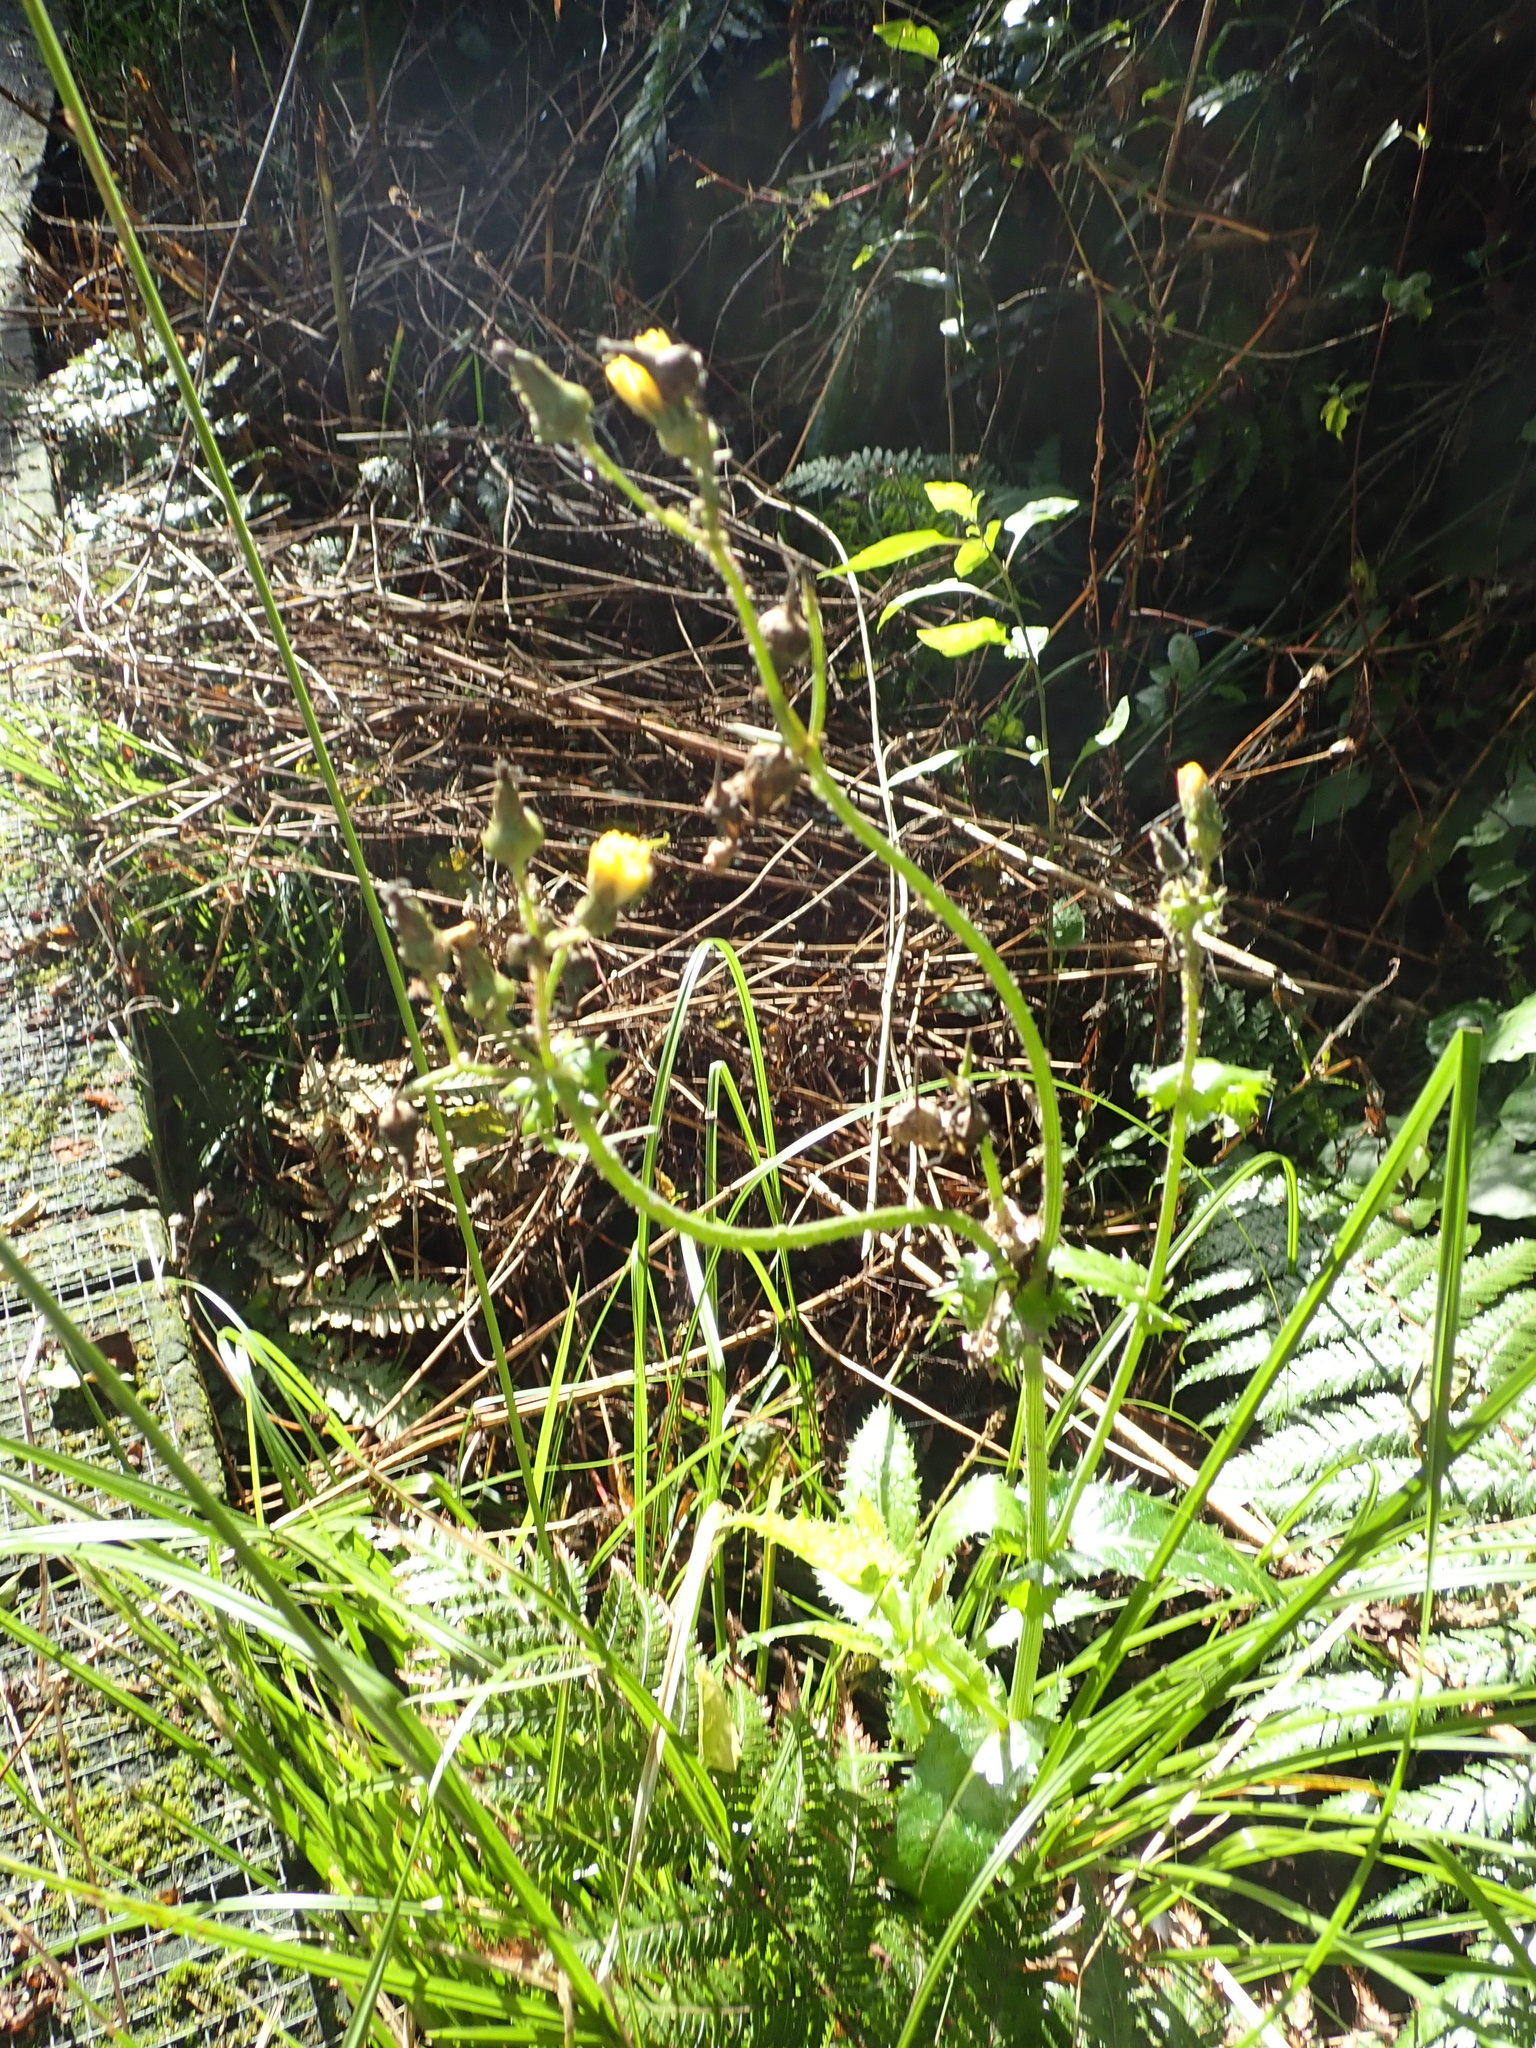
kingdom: Plantae
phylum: Tracheophyta
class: Magnoliopsida
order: Asterales
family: Asteraceae
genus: Sonchus
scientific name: Sonchus asper
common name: Prickly sow-thistle
